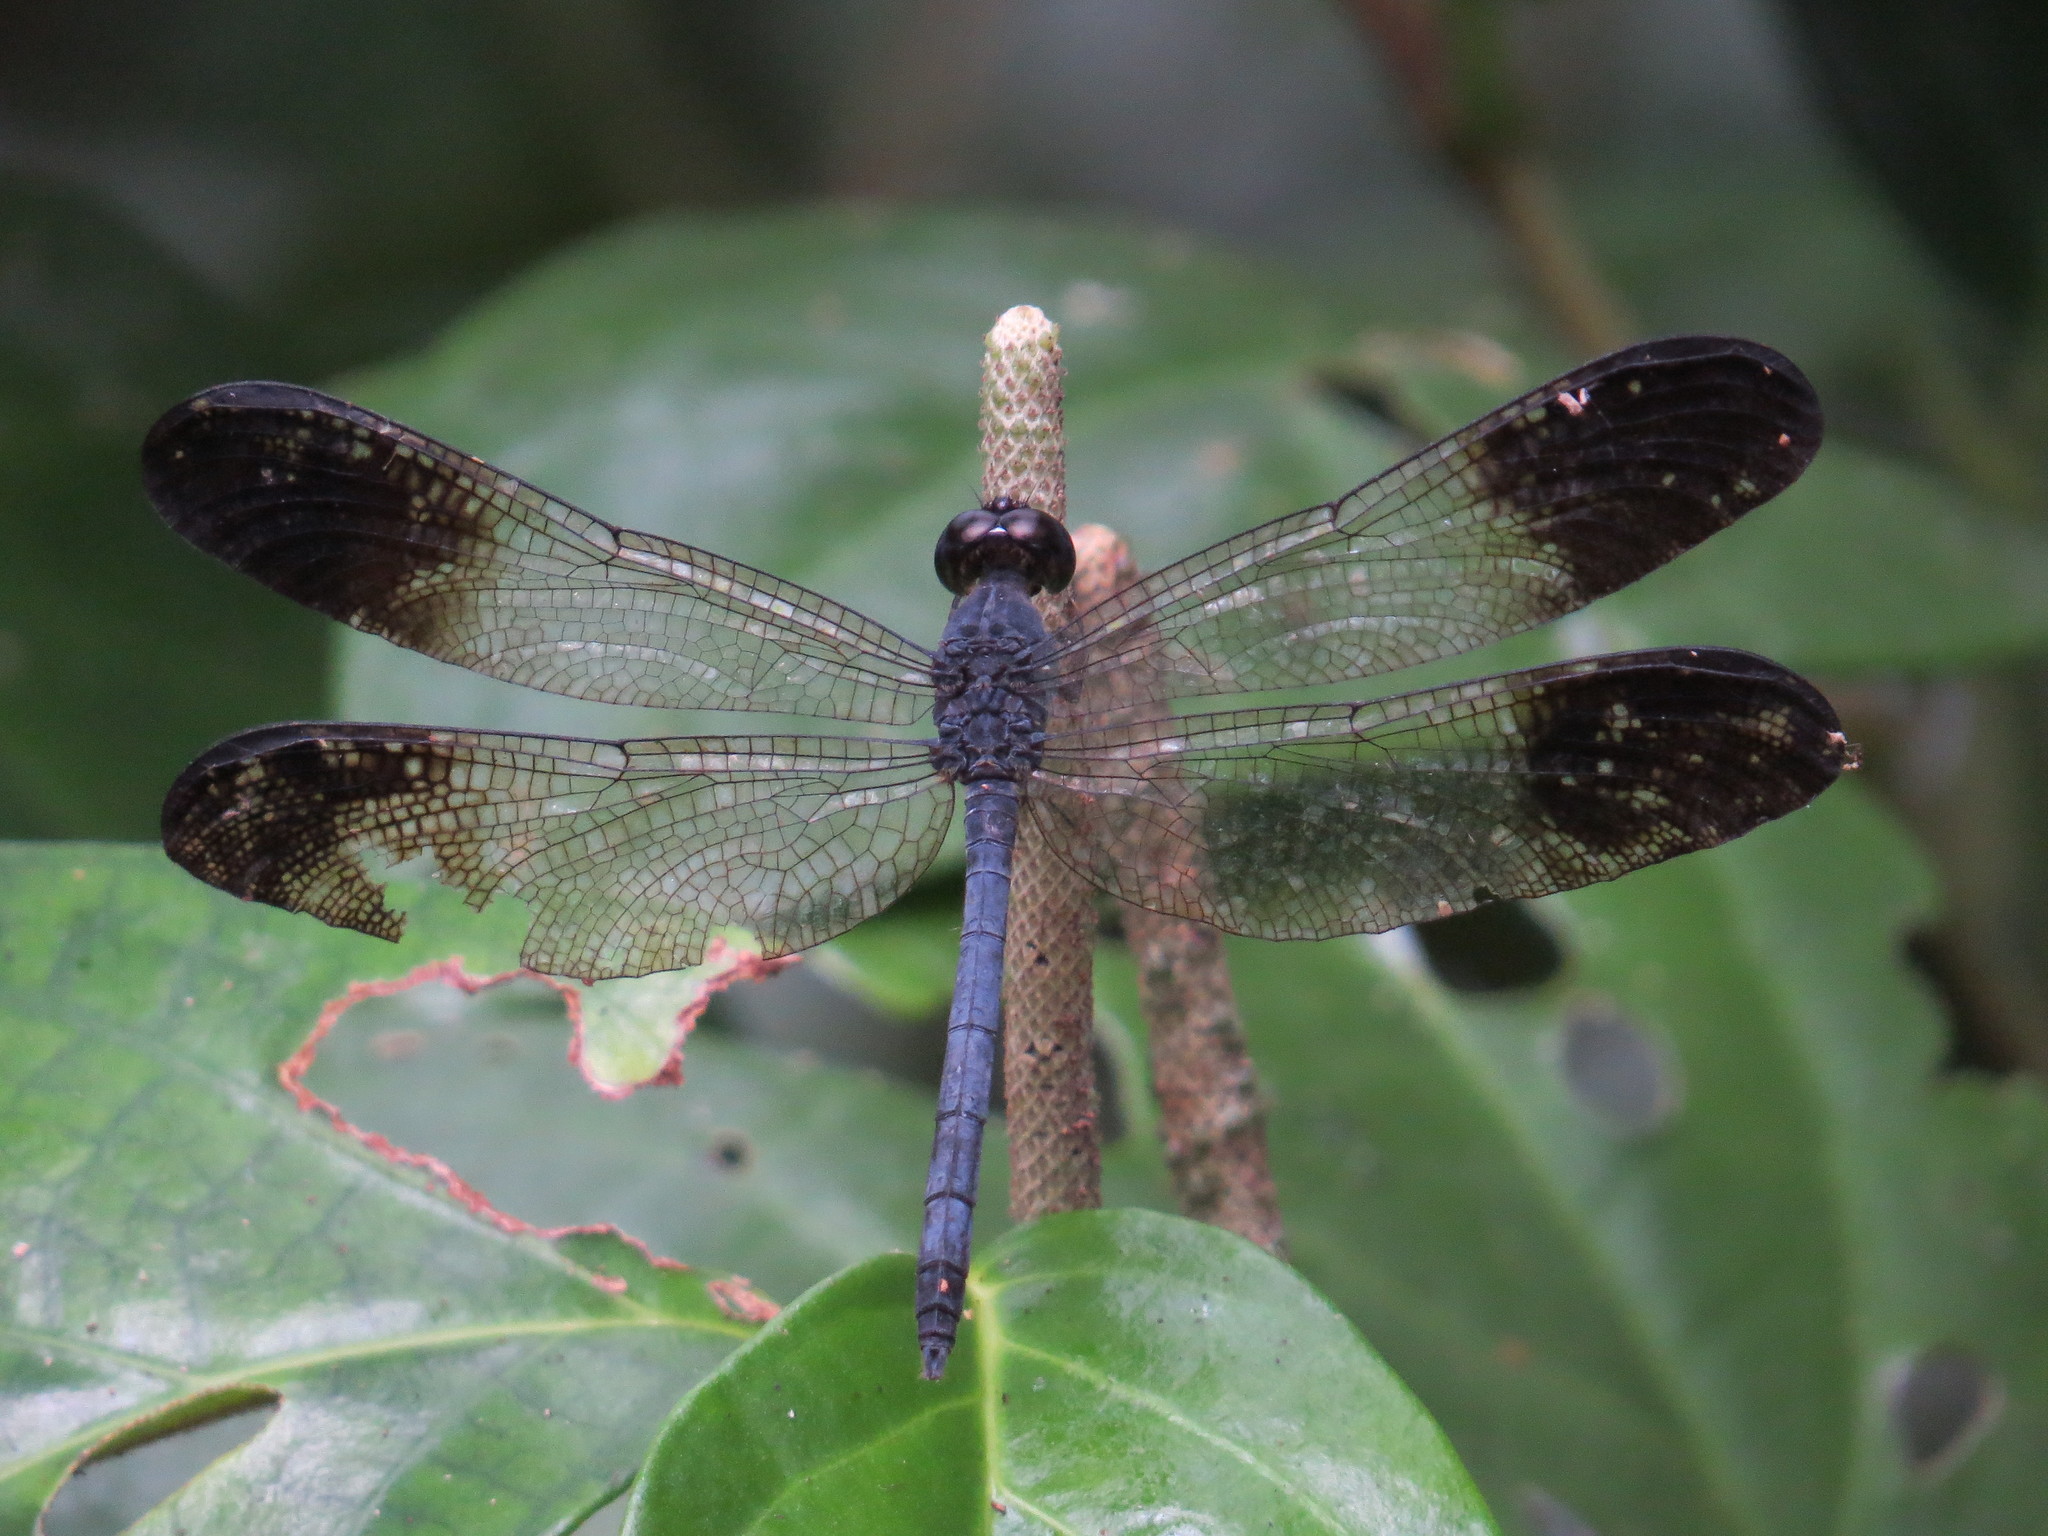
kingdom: Animalia
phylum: Arthropoda
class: Insecta
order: Odonata
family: Libellulidae
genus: Uracis
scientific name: Uracis fastigiata
